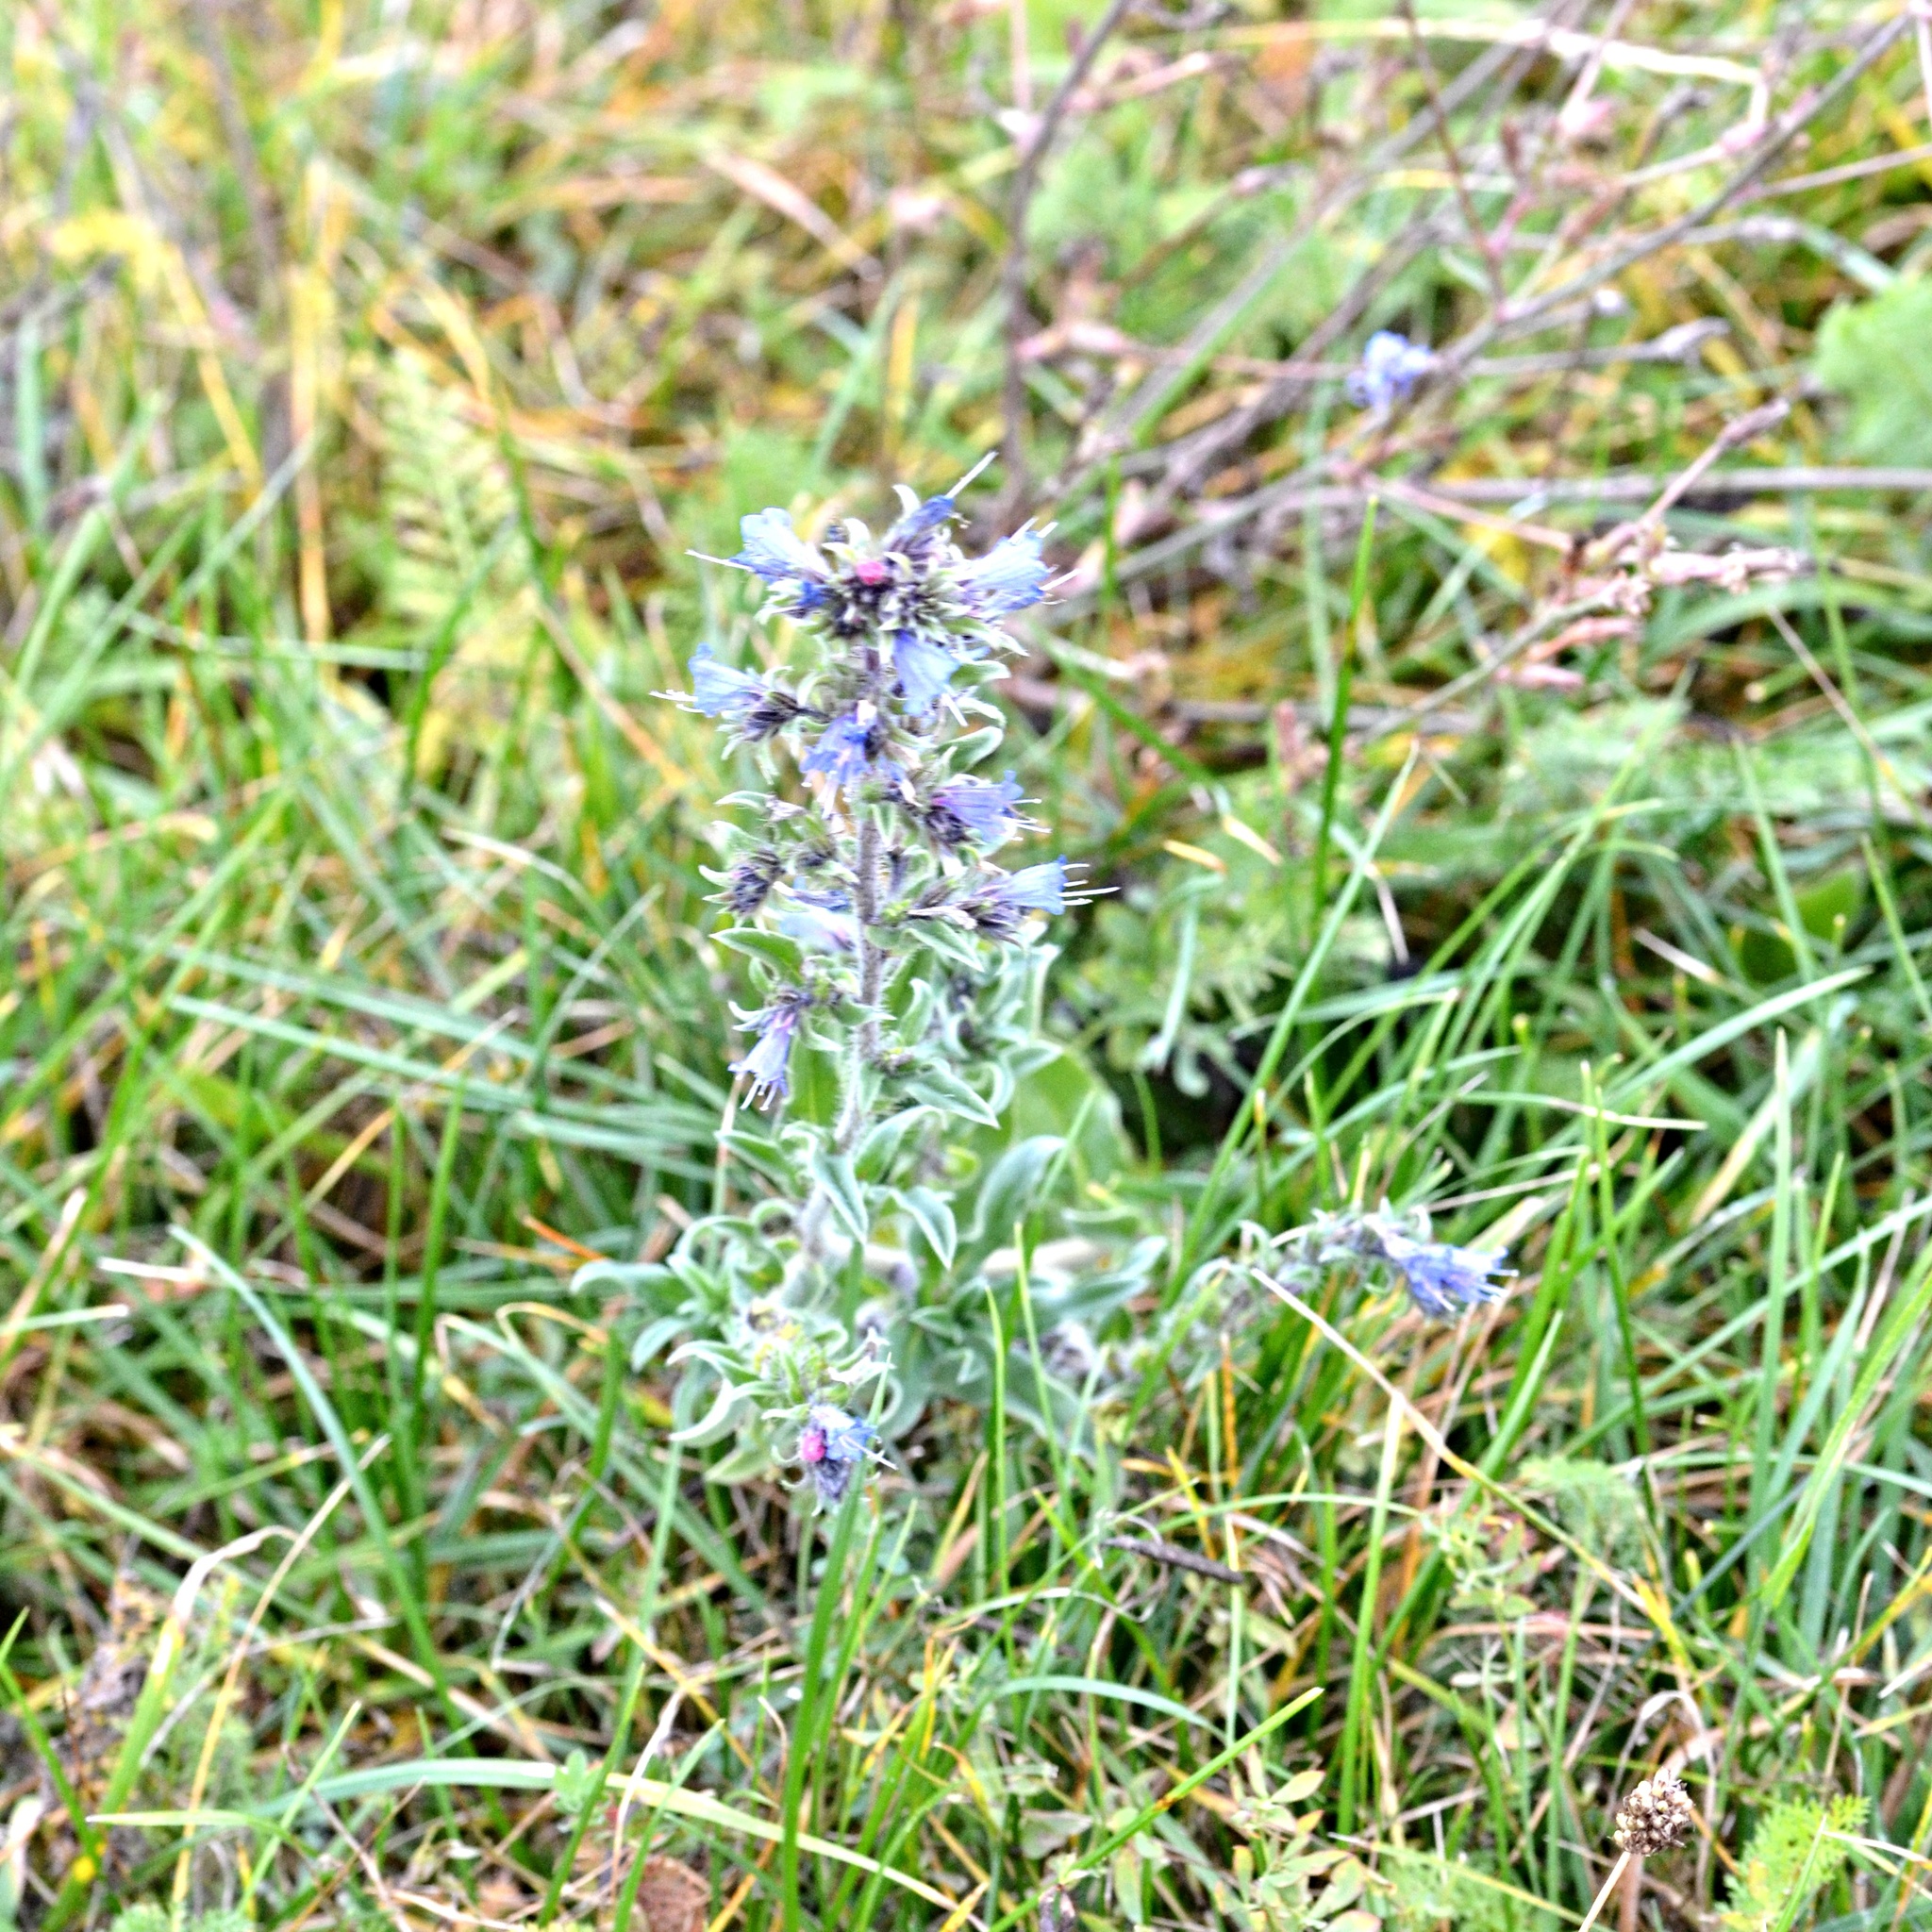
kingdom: Plantae
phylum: Tracheophyta
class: Magnoliopsida
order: Boraginales
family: Boraginaceae
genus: Echium
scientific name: Echium vulgare
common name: Common viper's bugloss
